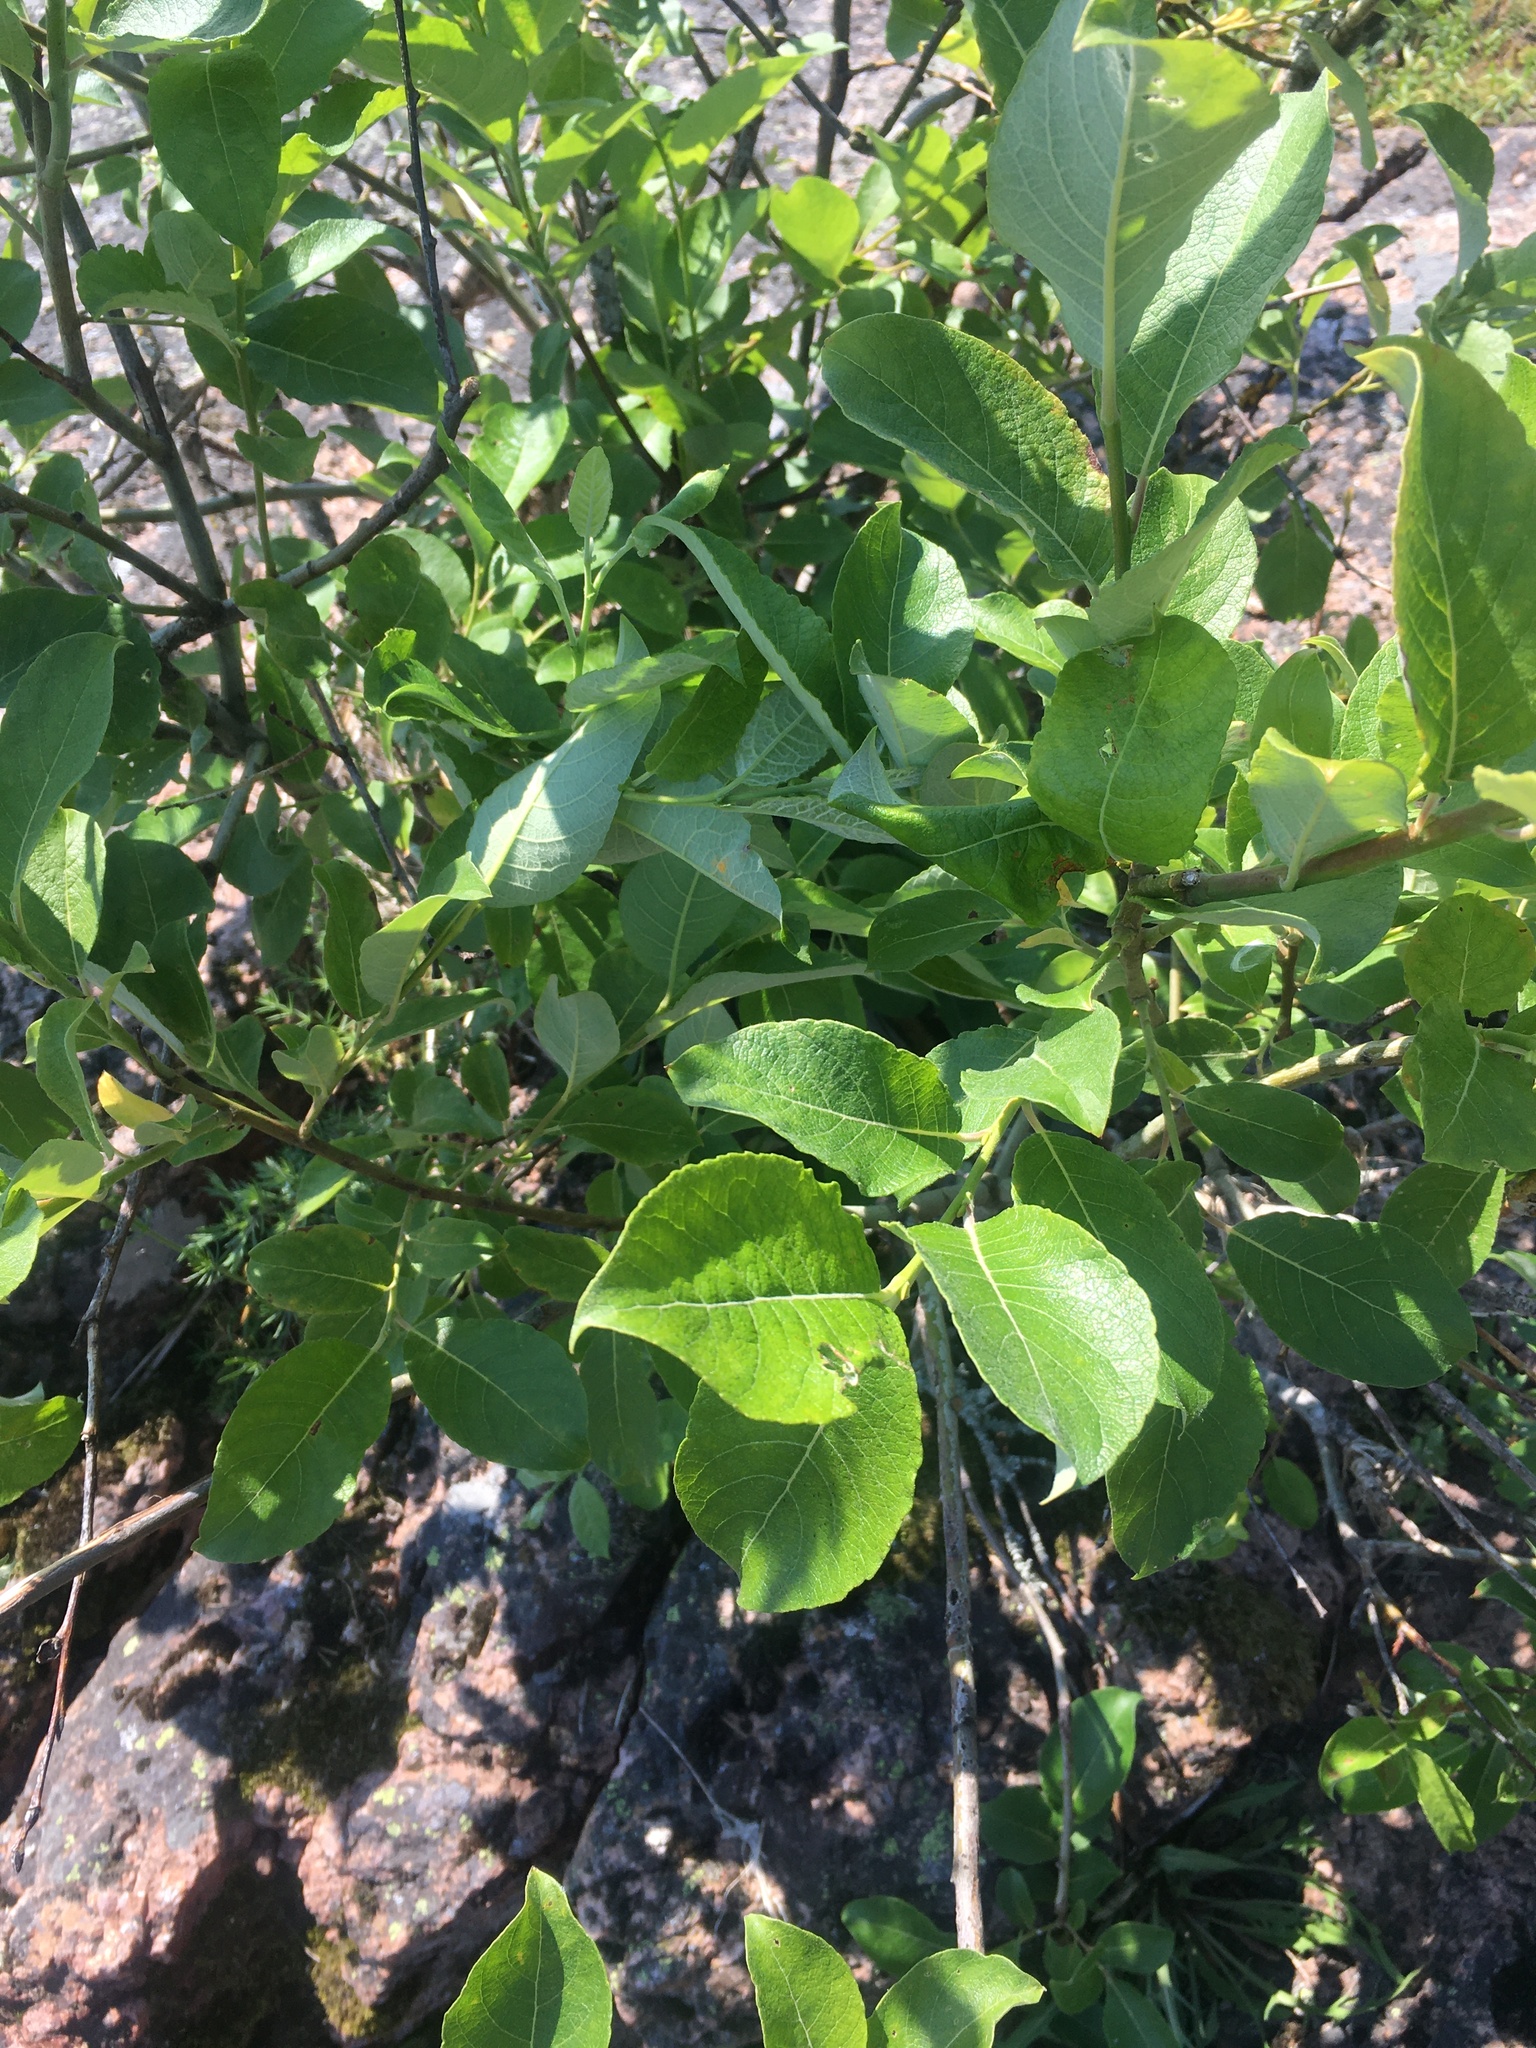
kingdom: Plantae
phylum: Tracheophyta
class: Magnoliopsida
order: Malpighiales
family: Salicaceae
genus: Salix
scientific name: Salix caprea
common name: Goat willow
